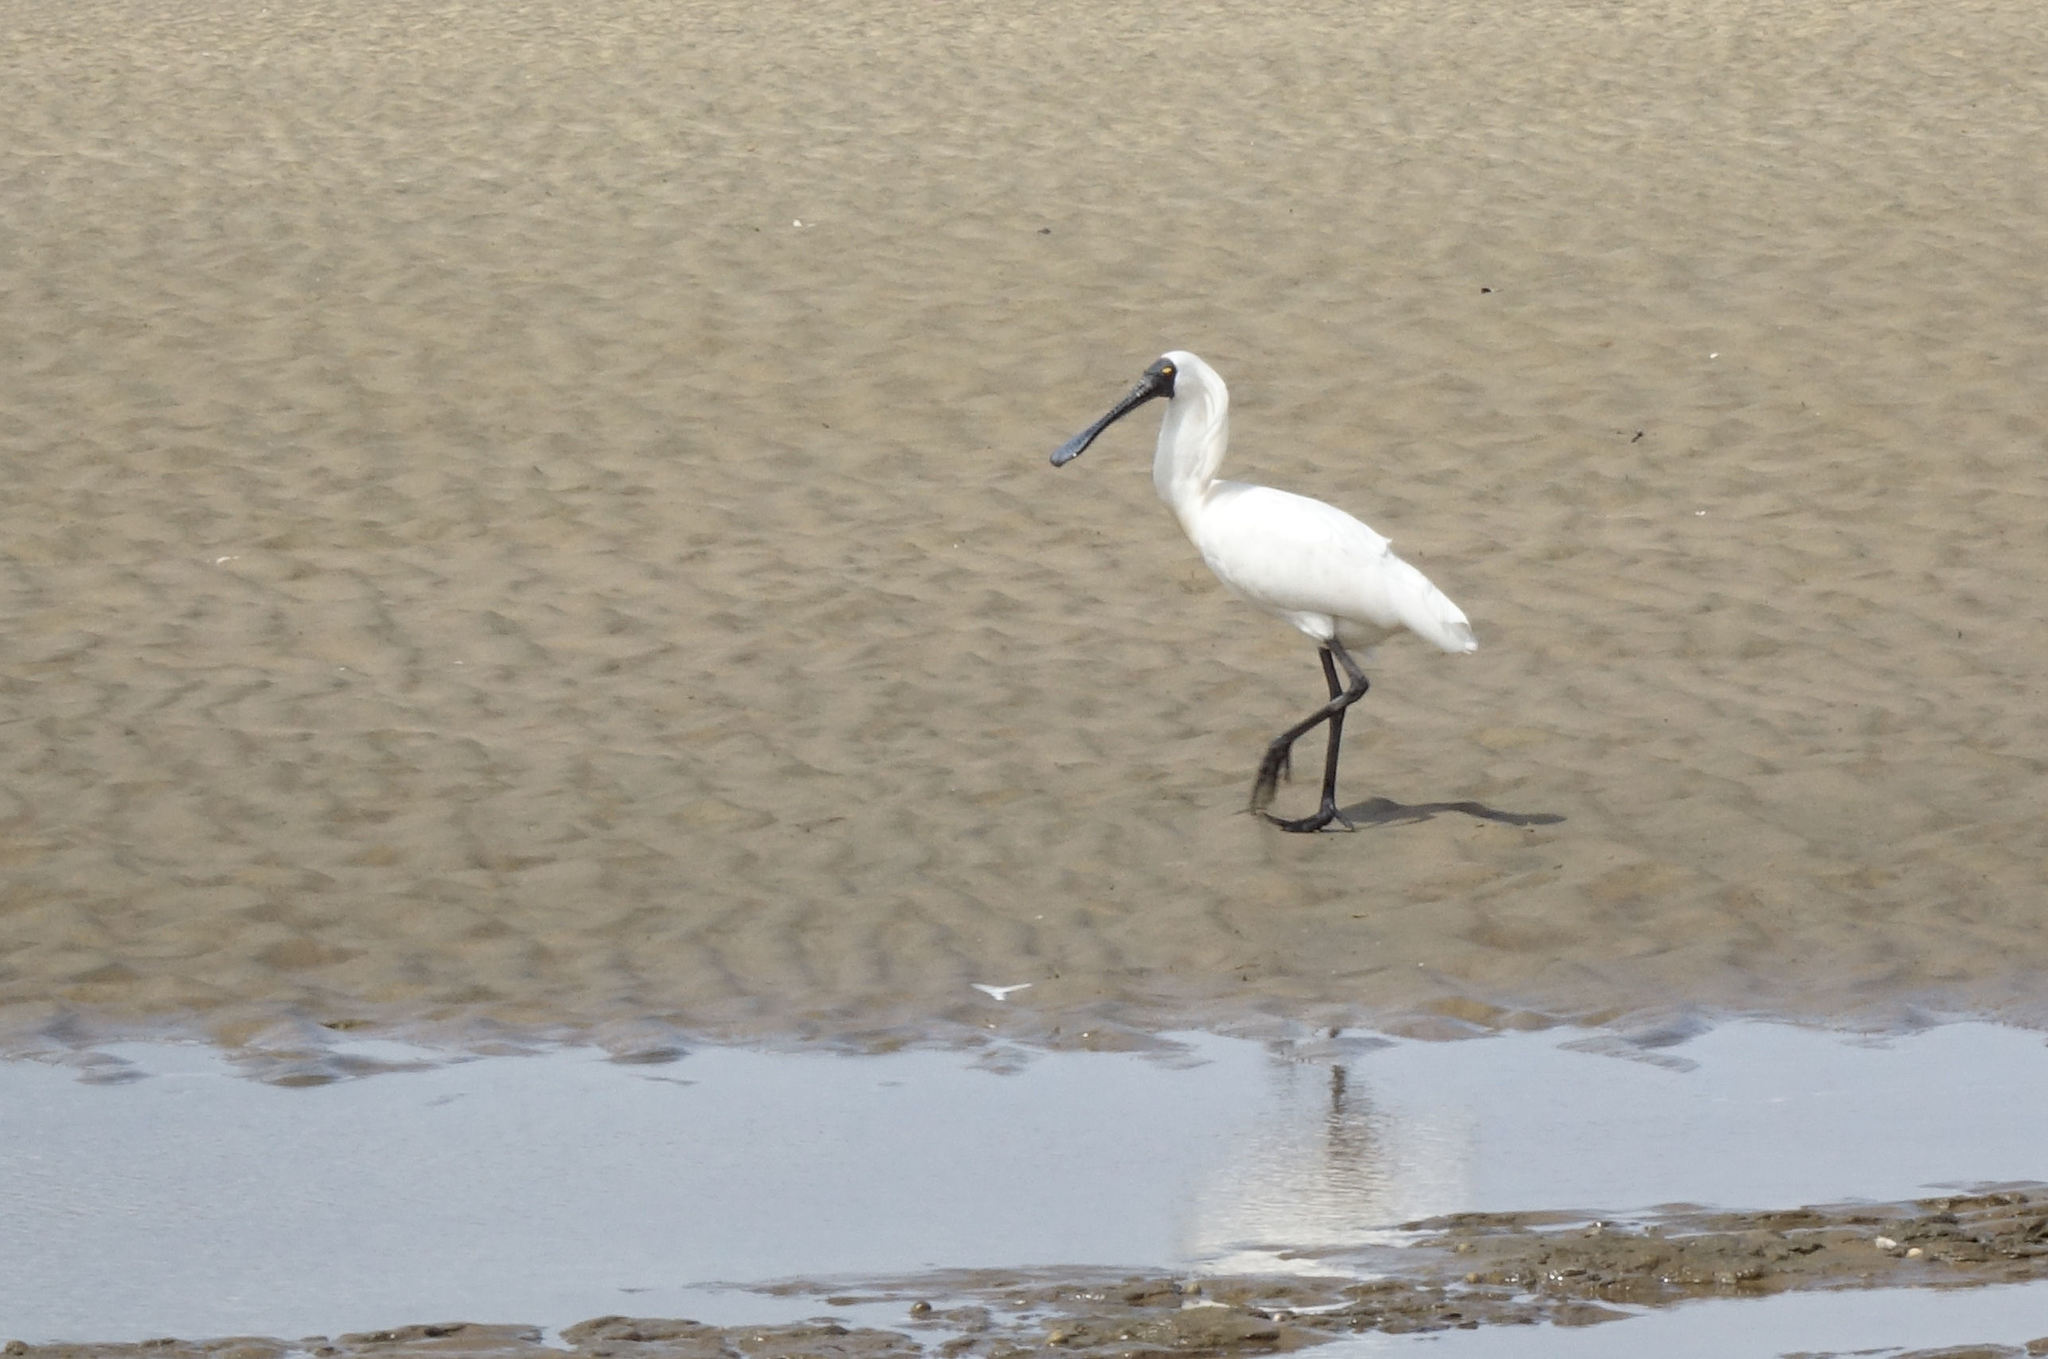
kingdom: Animalia
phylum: Chordata
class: Aves
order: Pelecaniformes
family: Threskiornithidae
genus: Platalea
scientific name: Platalea regia
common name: Royal spoonbill
